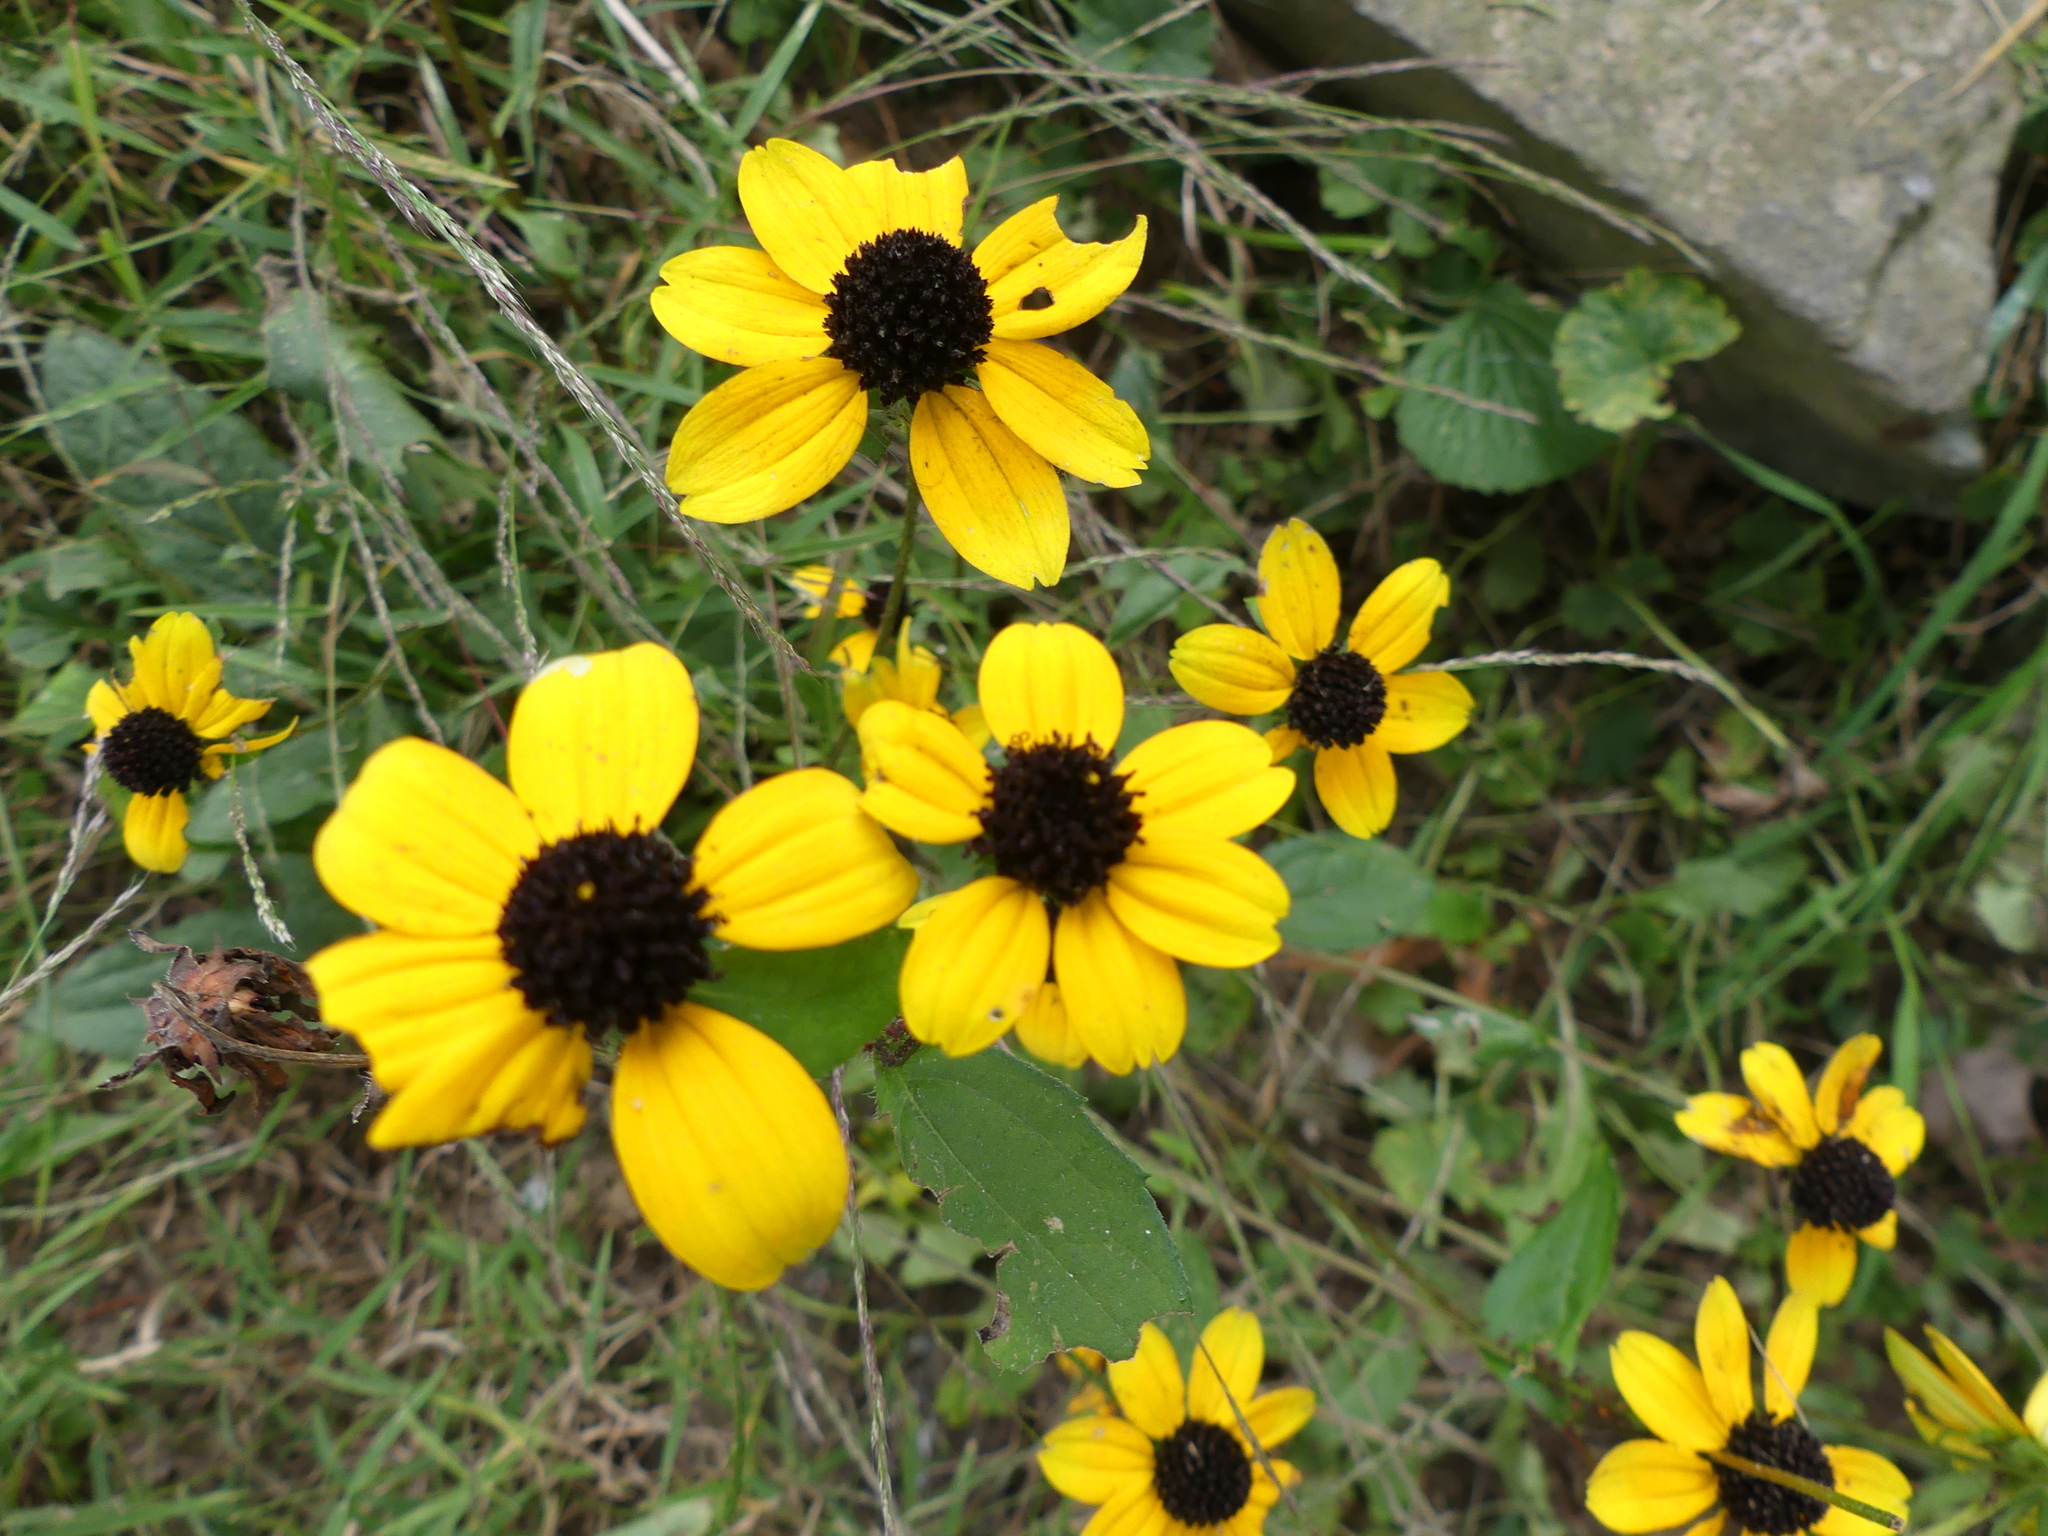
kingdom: Plantae
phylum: Tracheophyta
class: Magnoliopsida
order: Asterales
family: Asteraceae
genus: Rudbeckia
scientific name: Rudbeckia triloba
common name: Thin-leaved coneflower
